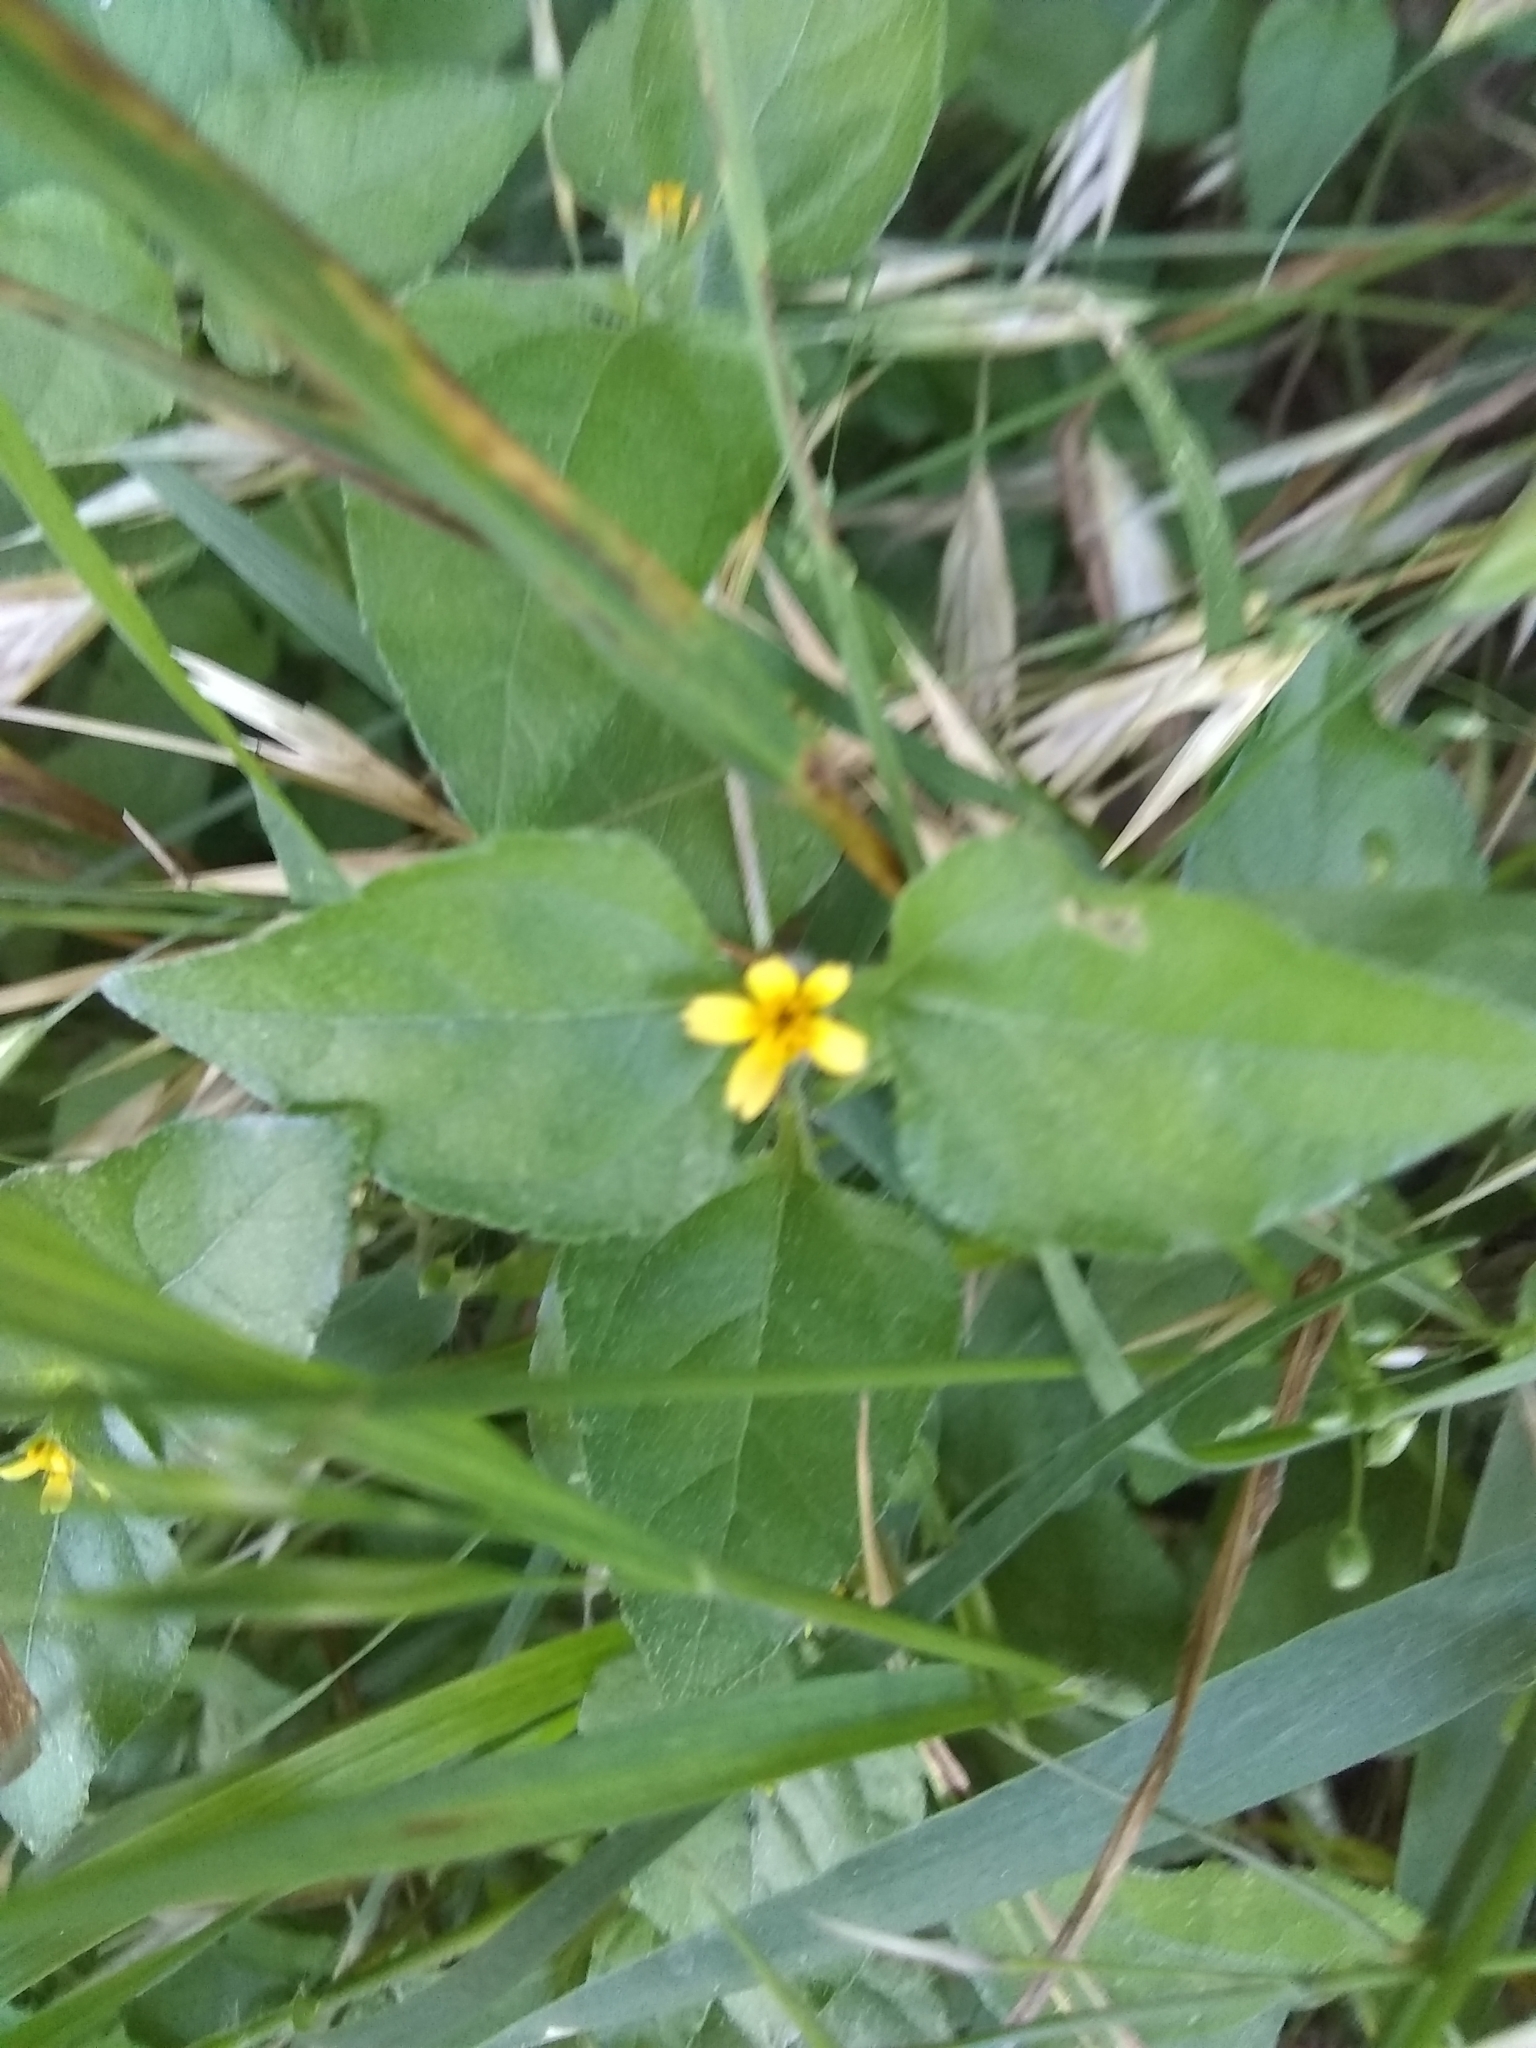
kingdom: Plantae
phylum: Tracheophyta
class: Magnoliopsida
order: Asterales
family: Asteraceae
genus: Calyptocarpus
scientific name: Calyptocarpus vialis
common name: Straggler daisy
